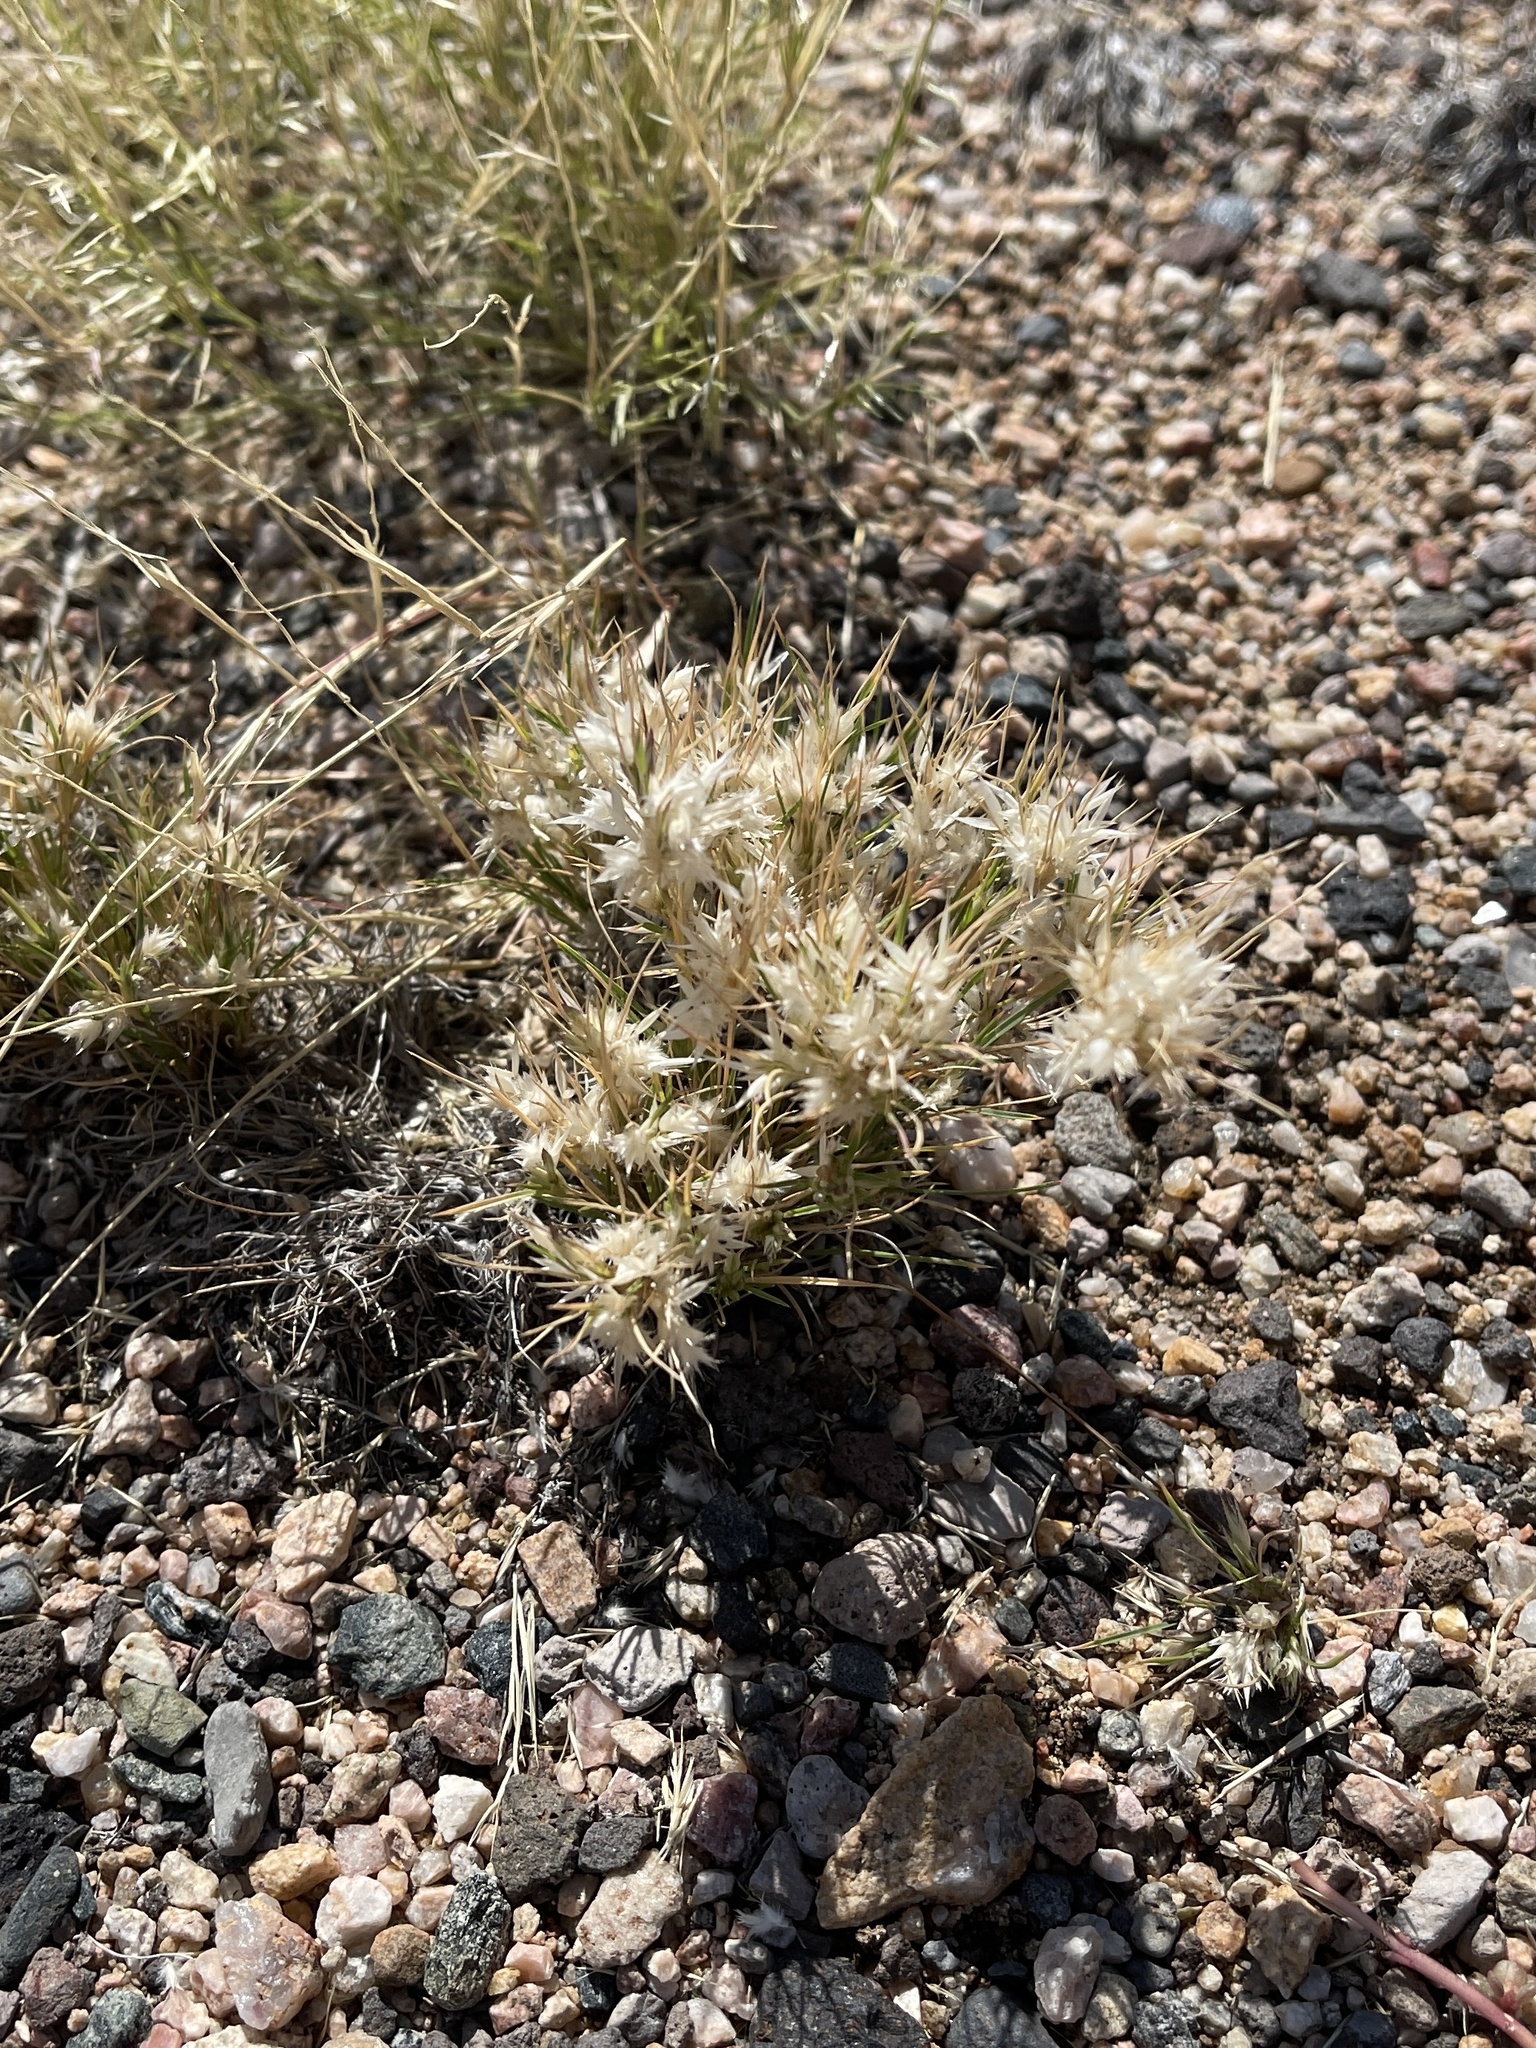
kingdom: Plantae
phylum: Tracheophyta
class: Liliopsida
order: Poales
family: Poaceae
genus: Dasyochloa
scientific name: Dasyochloa pulchella
